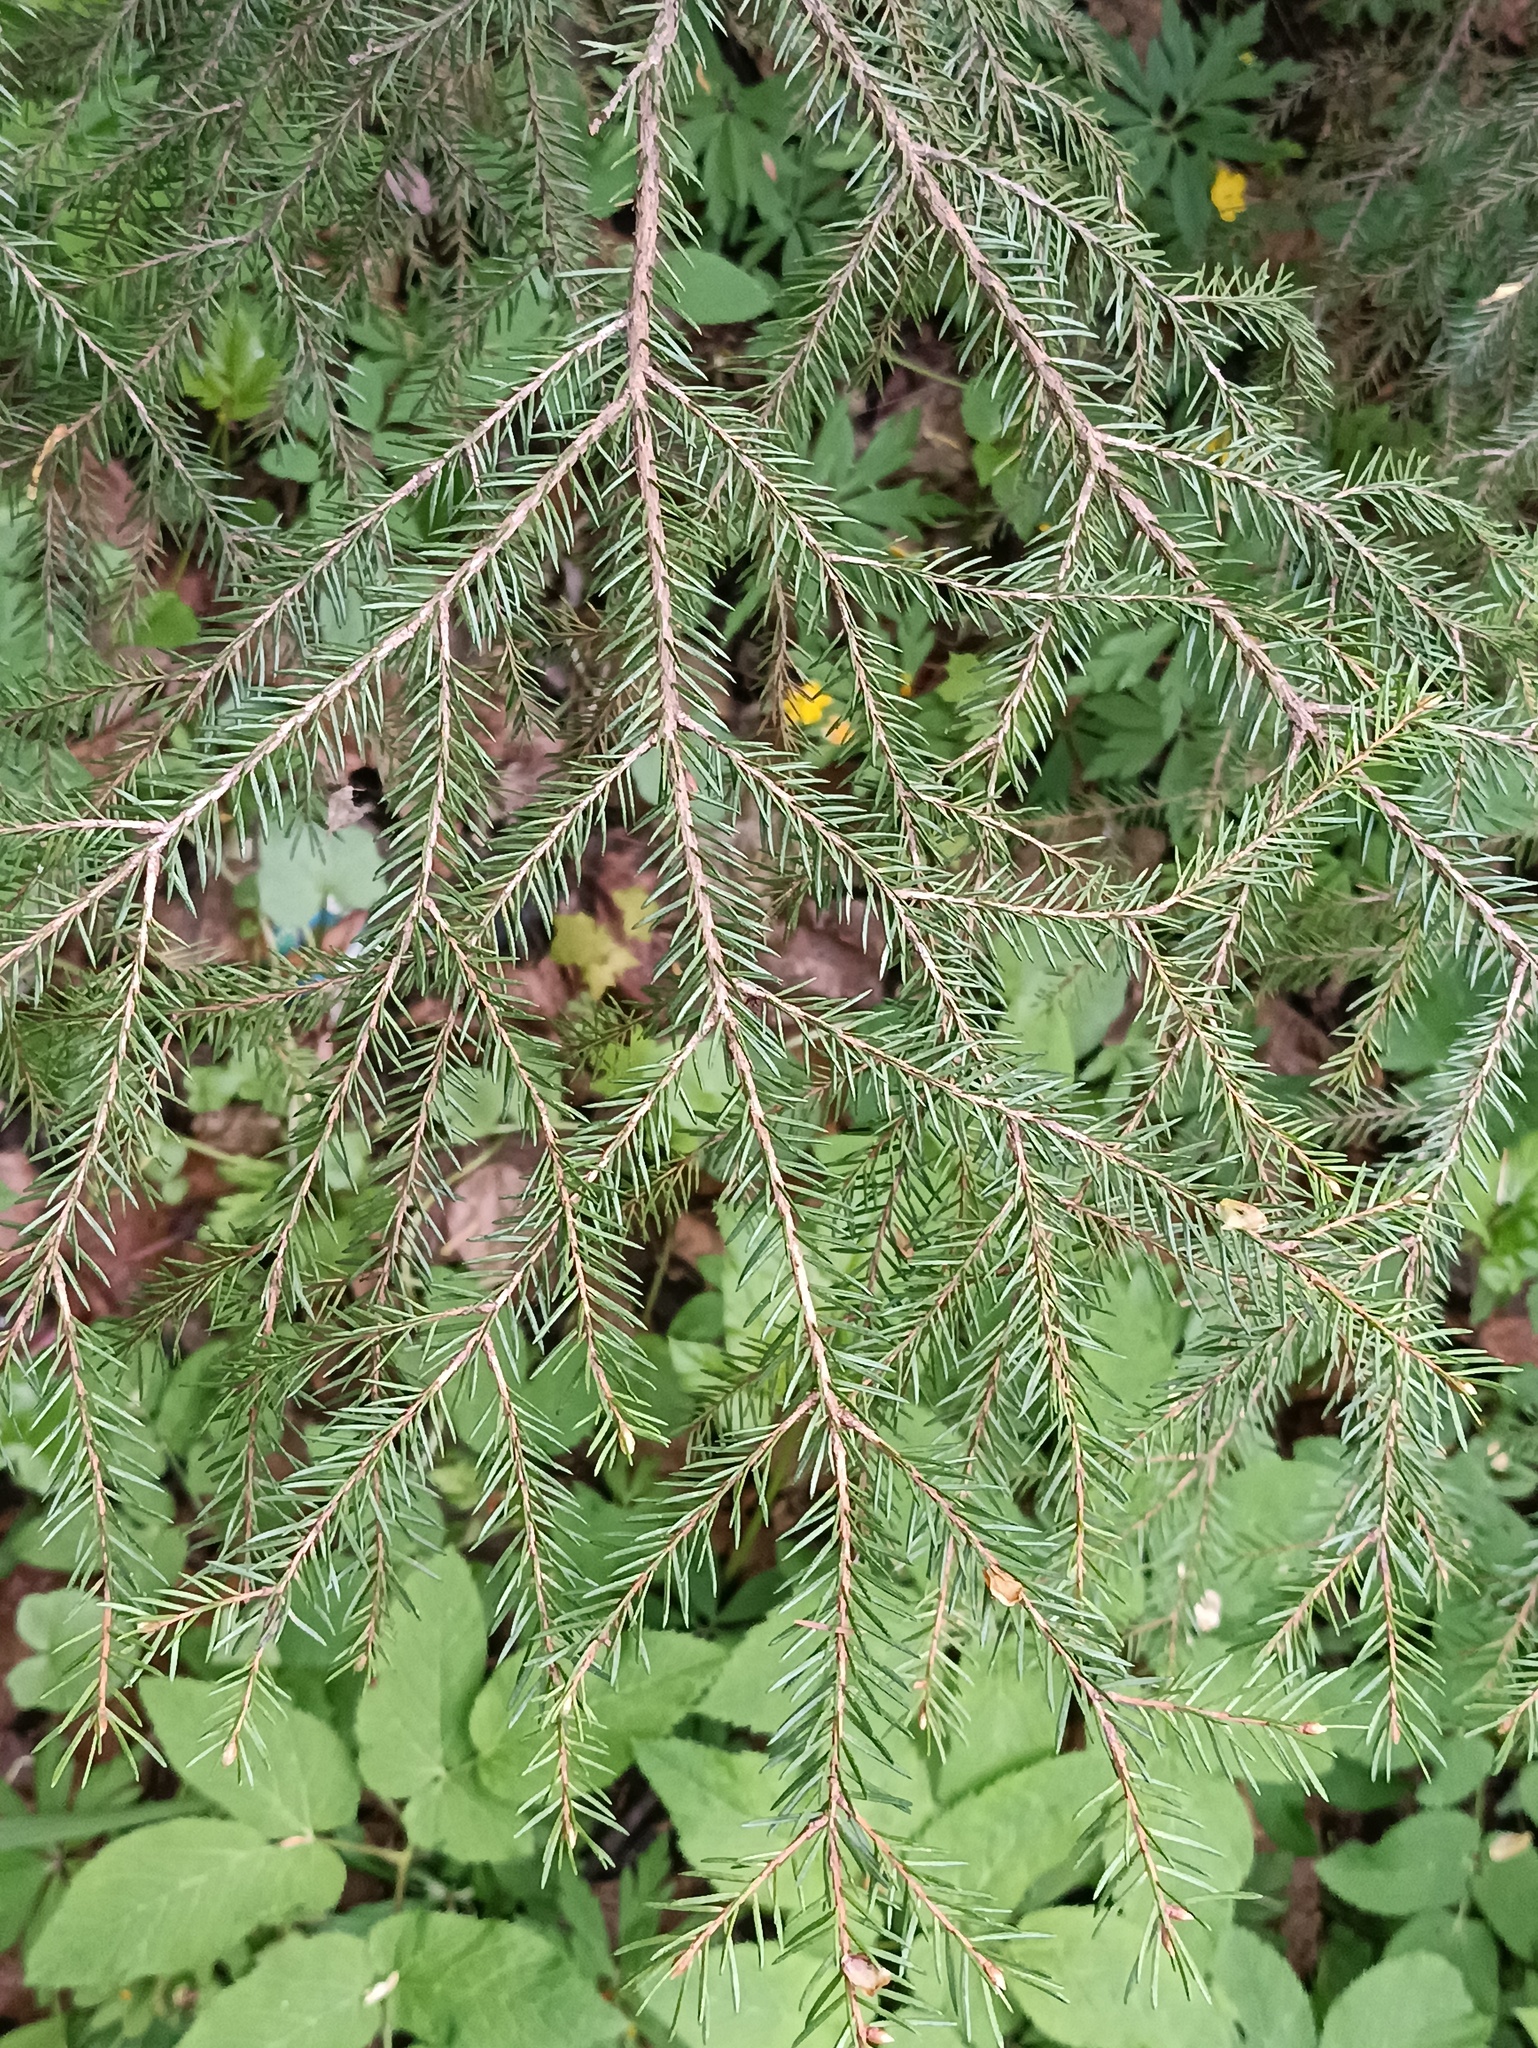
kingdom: Plantae
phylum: Tracheophyta
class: Pinopsida
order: Pinales
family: Pinaceae
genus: Picea
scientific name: Picea abies
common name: Norway spruce
